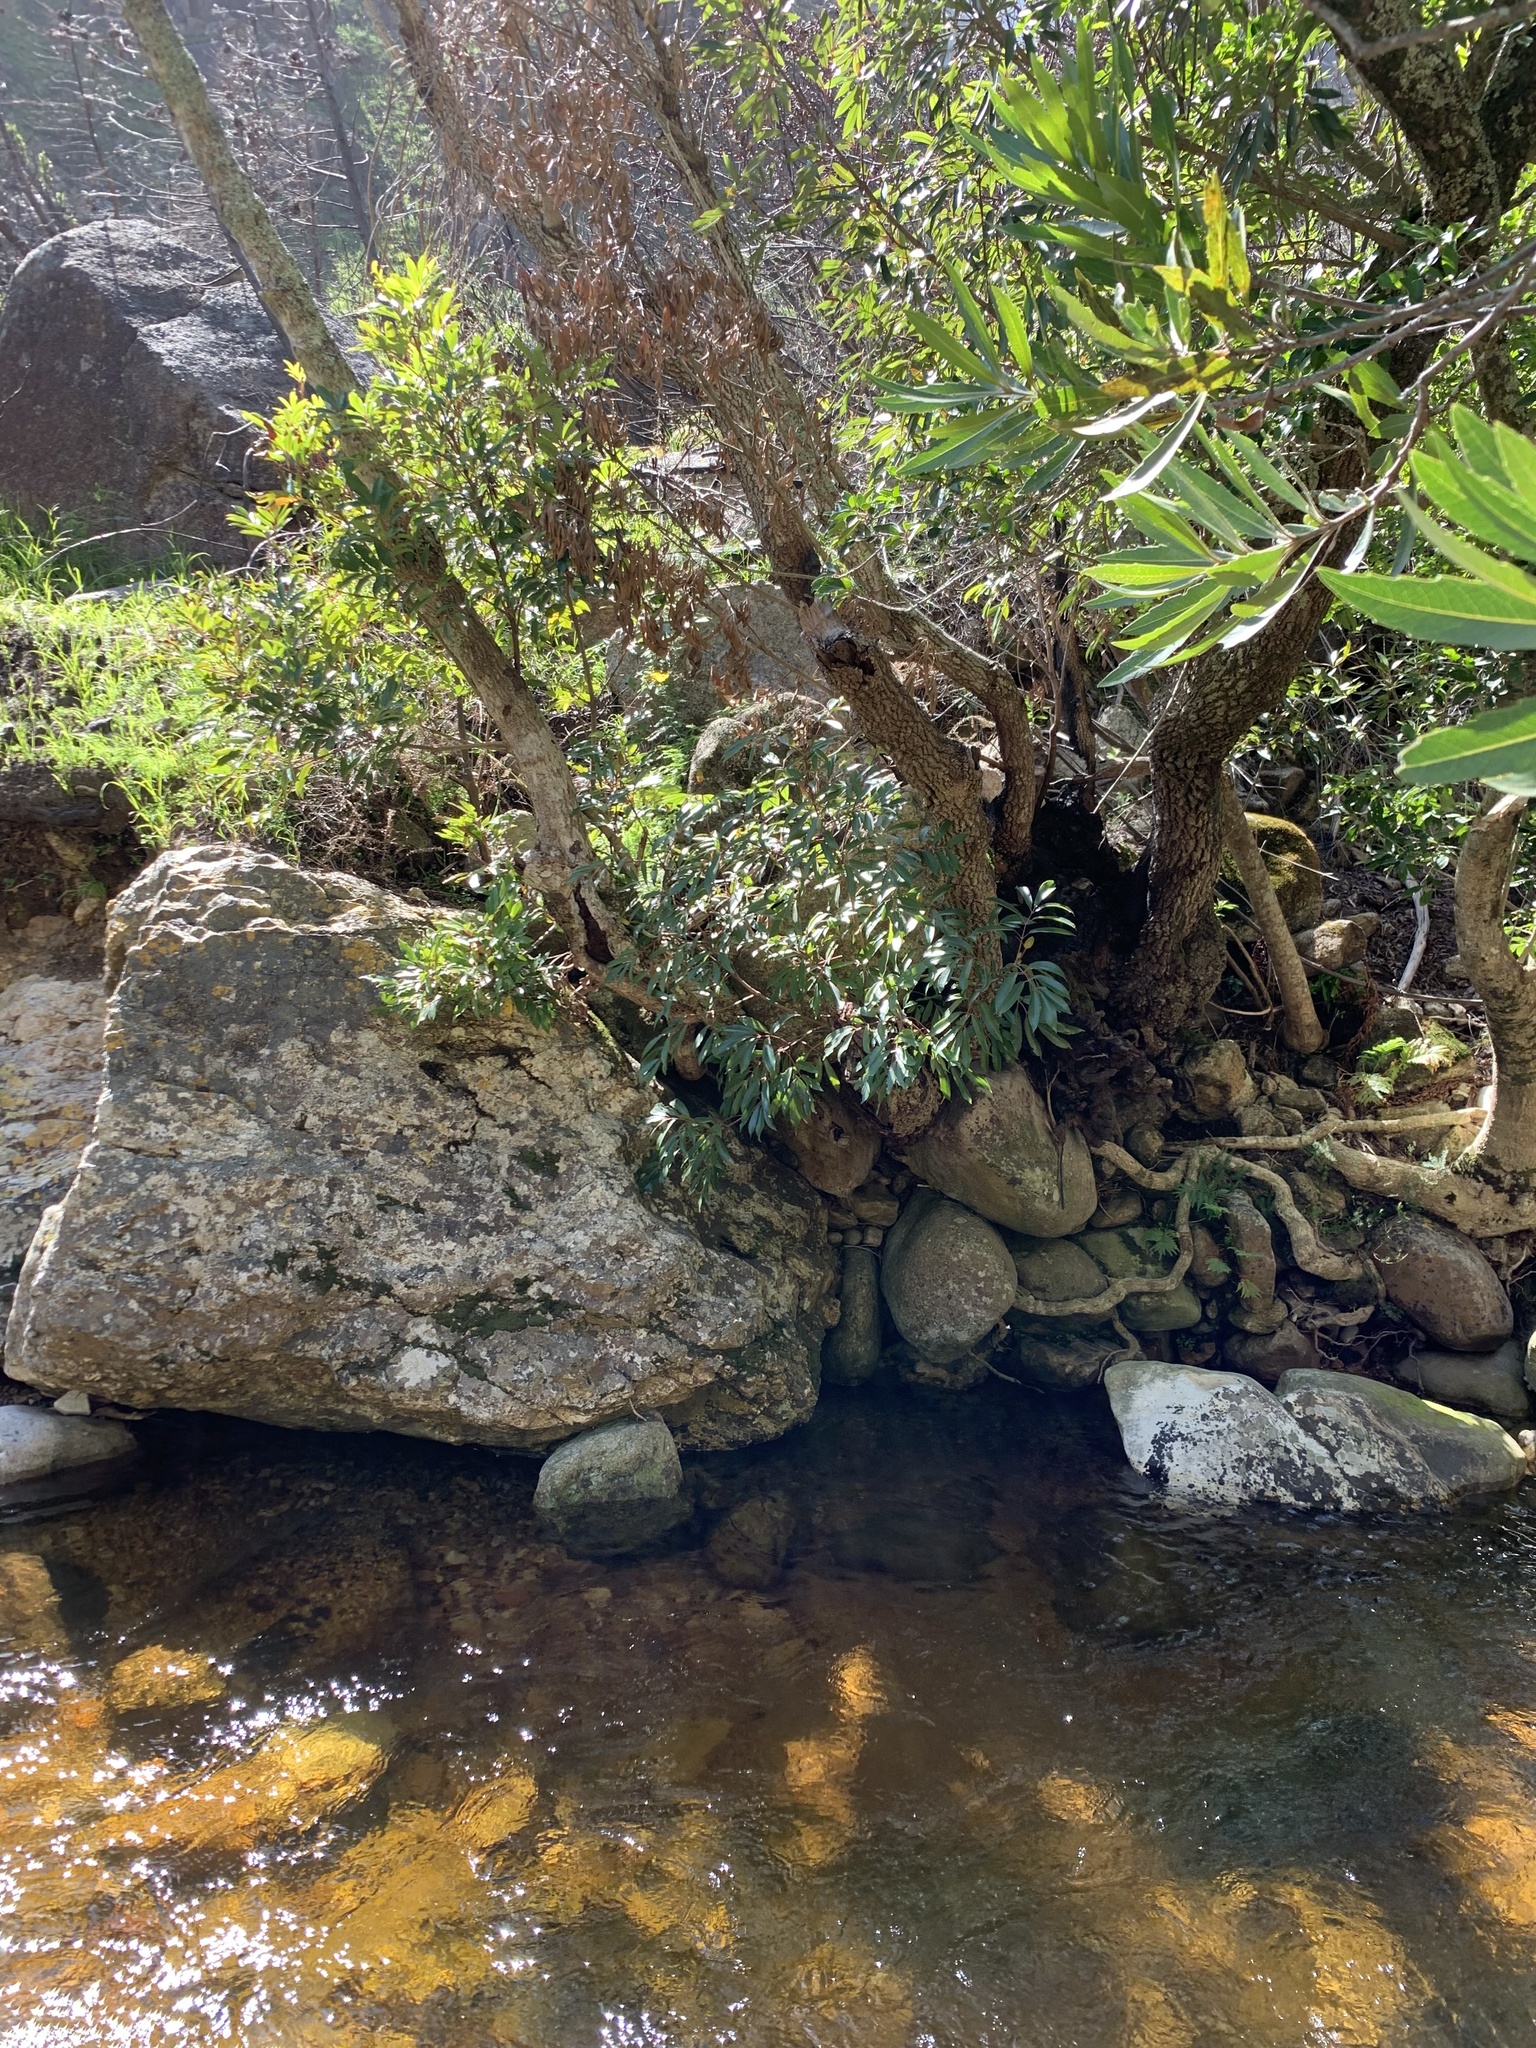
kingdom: Plantae
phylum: Tracheophyta
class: Magnoliopsida
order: Oxalidales
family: Cunoniaceae
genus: Cunonia
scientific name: Cunonia capensis
